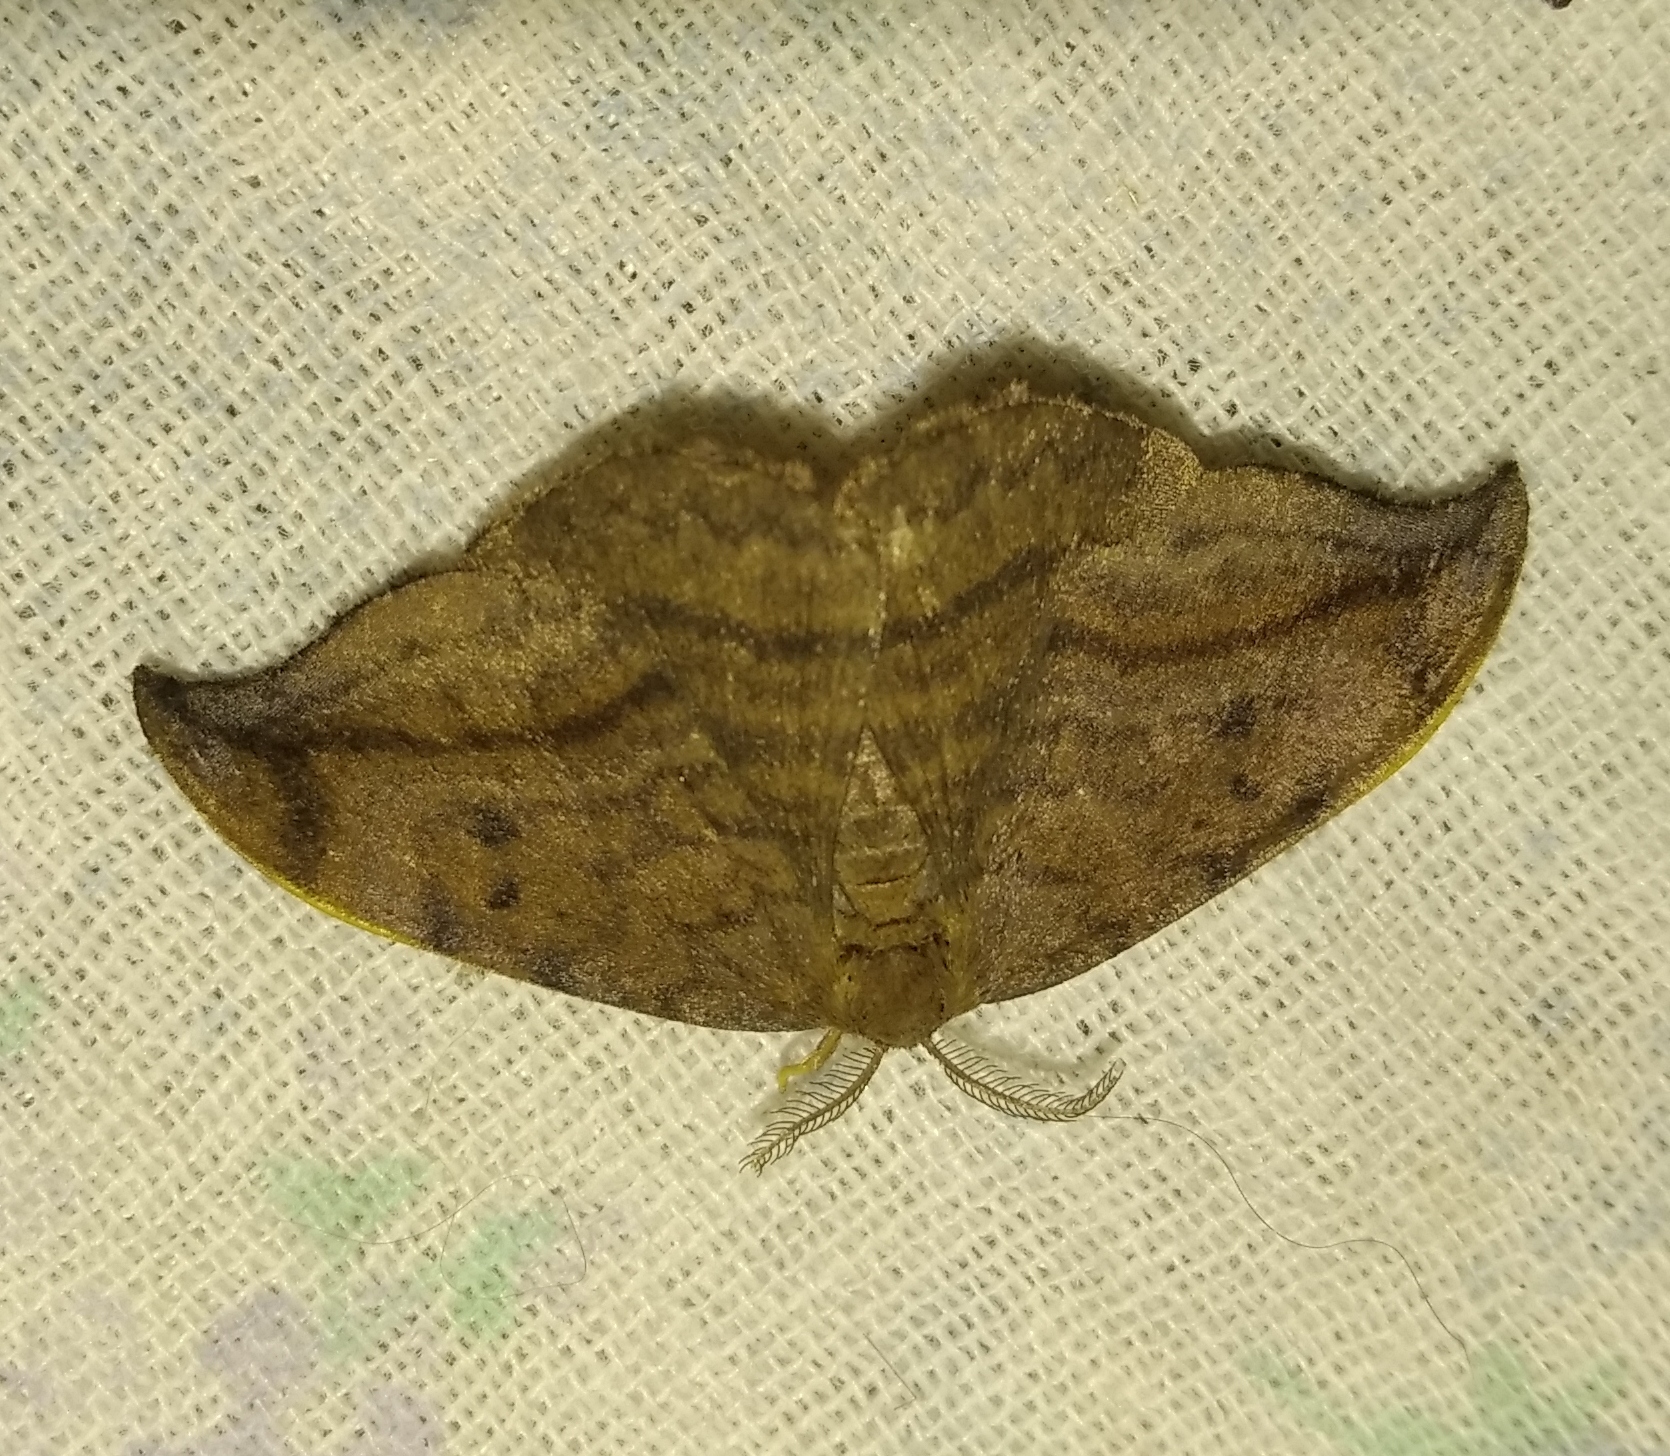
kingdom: Animalia
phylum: Arthropoda
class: Insecta
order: Lepidoptera
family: Drepanidae
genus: Drepana
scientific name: Drepana curvatula
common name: Dusky hook-tip
